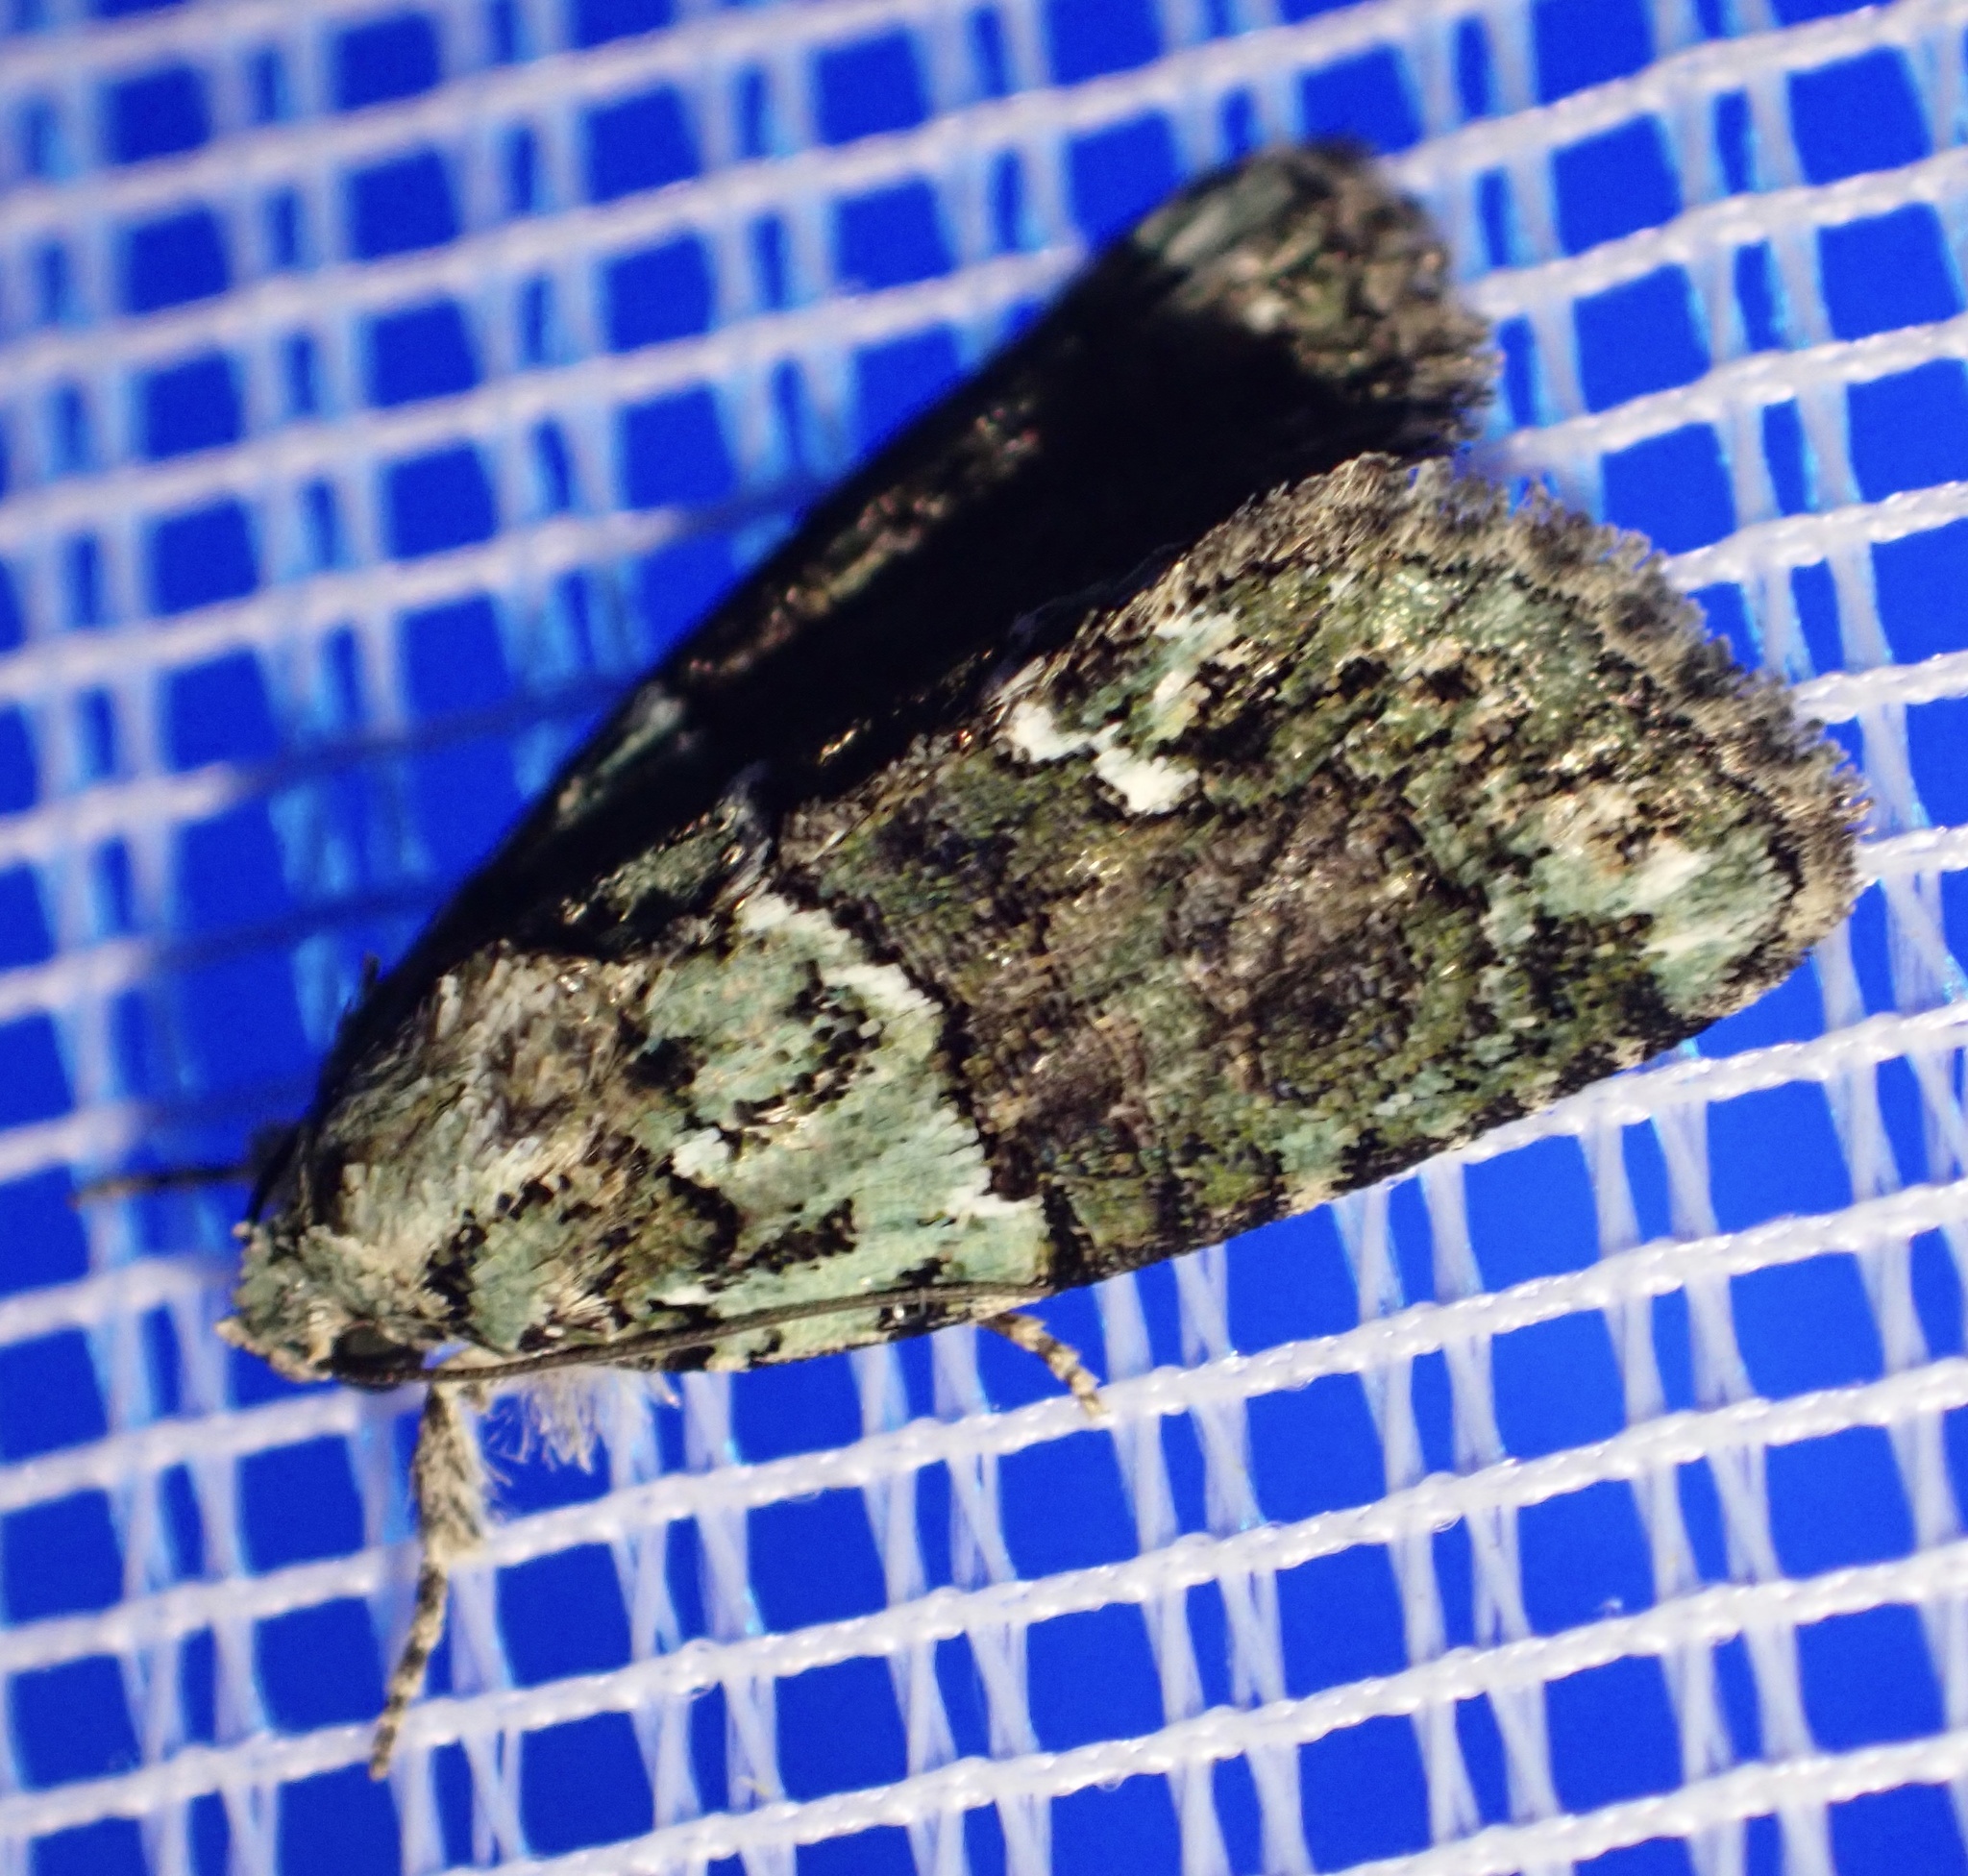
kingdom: Animalia
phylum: Arthropoda
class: Insecta
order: Lepidoptera
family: Noctuidae
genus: Cryphia
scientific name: Cryphia algae
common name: Tree-lichen beauty
